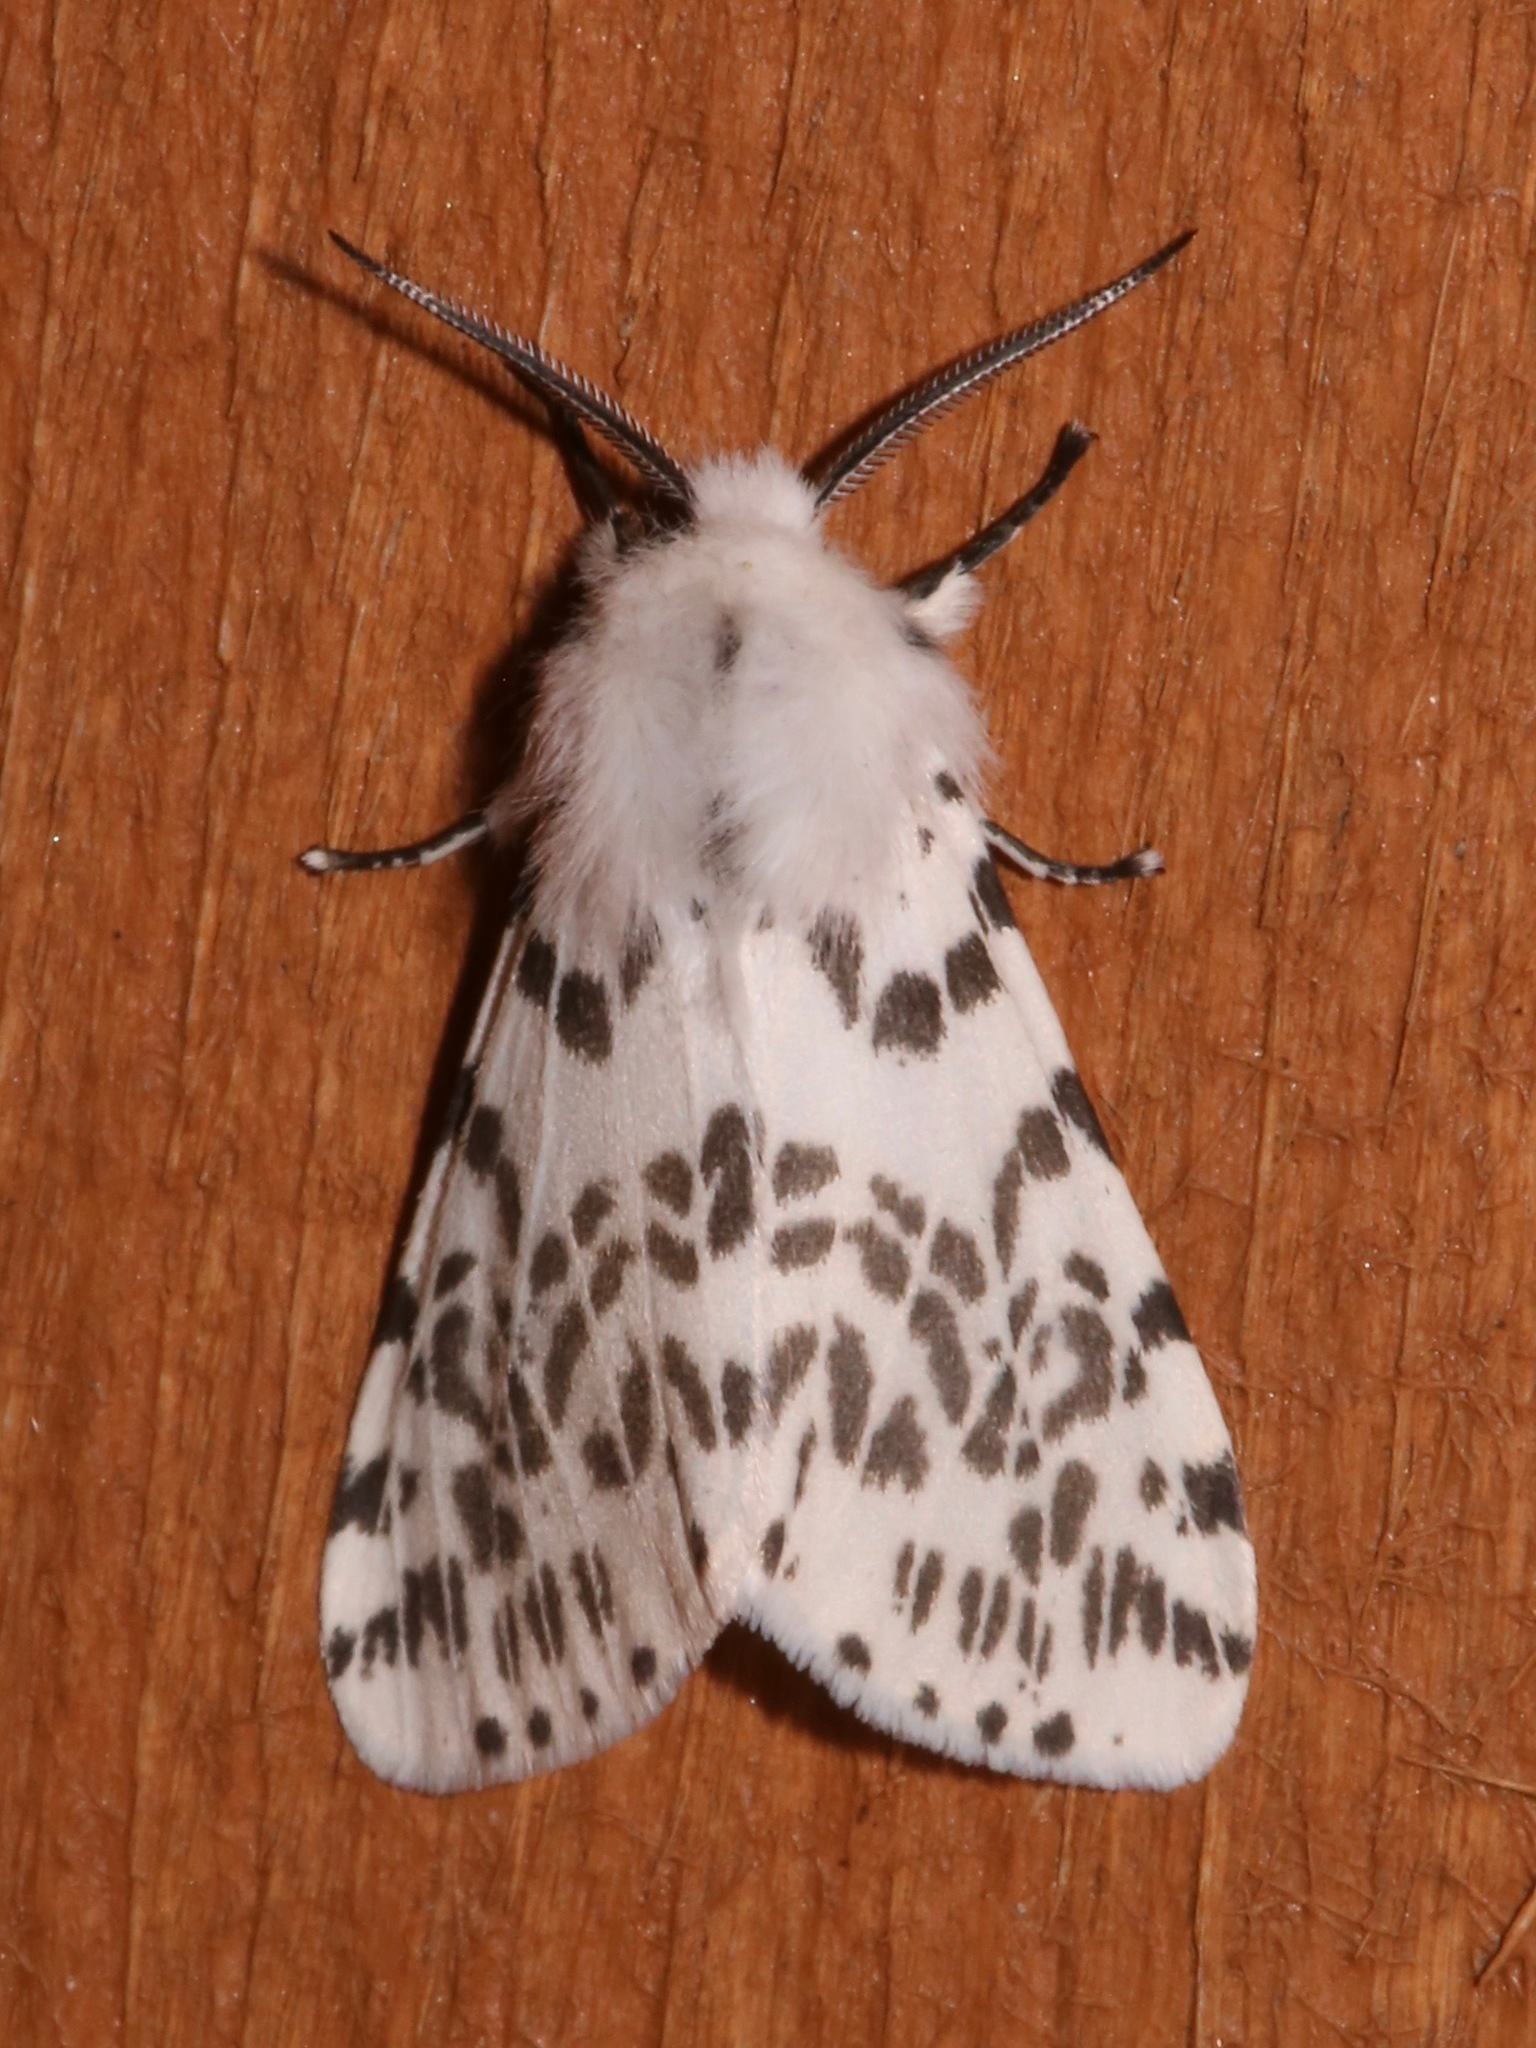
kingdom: Animalia
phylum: Arthropoda
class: Insecta
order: Lepidoptera
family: Erebidae
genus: Hyphantria
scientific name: Hyphantria cunea
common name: American white moth
